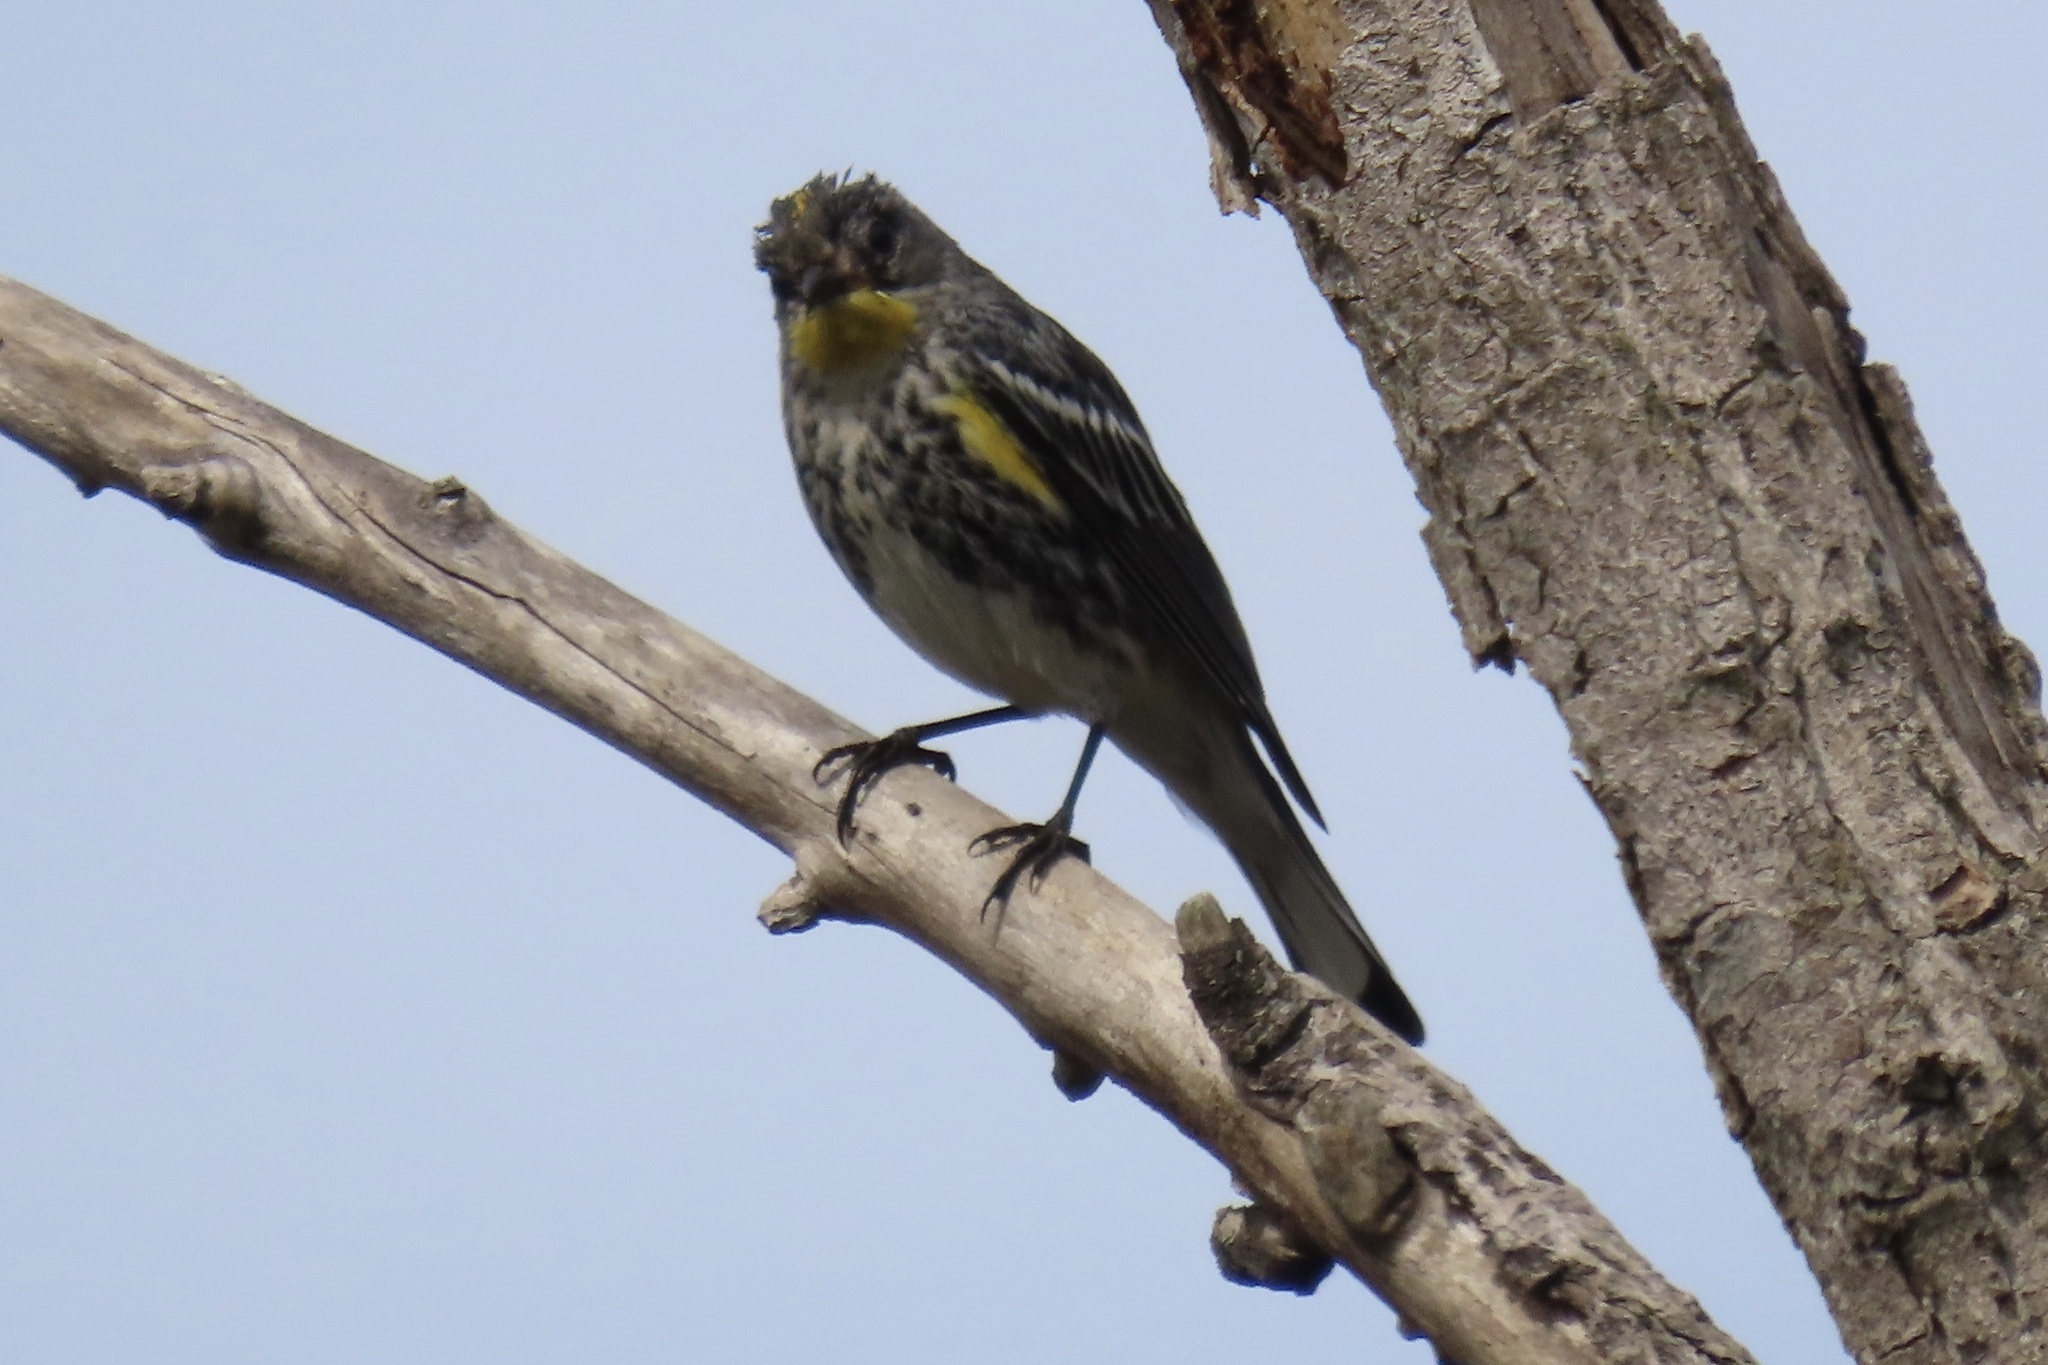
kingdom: Animalia
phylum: Chordata
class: Aves
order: Passeriformes
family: Parulidae
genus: Setophaga
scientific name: Setophaga coronata
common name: Myrtle warbler
